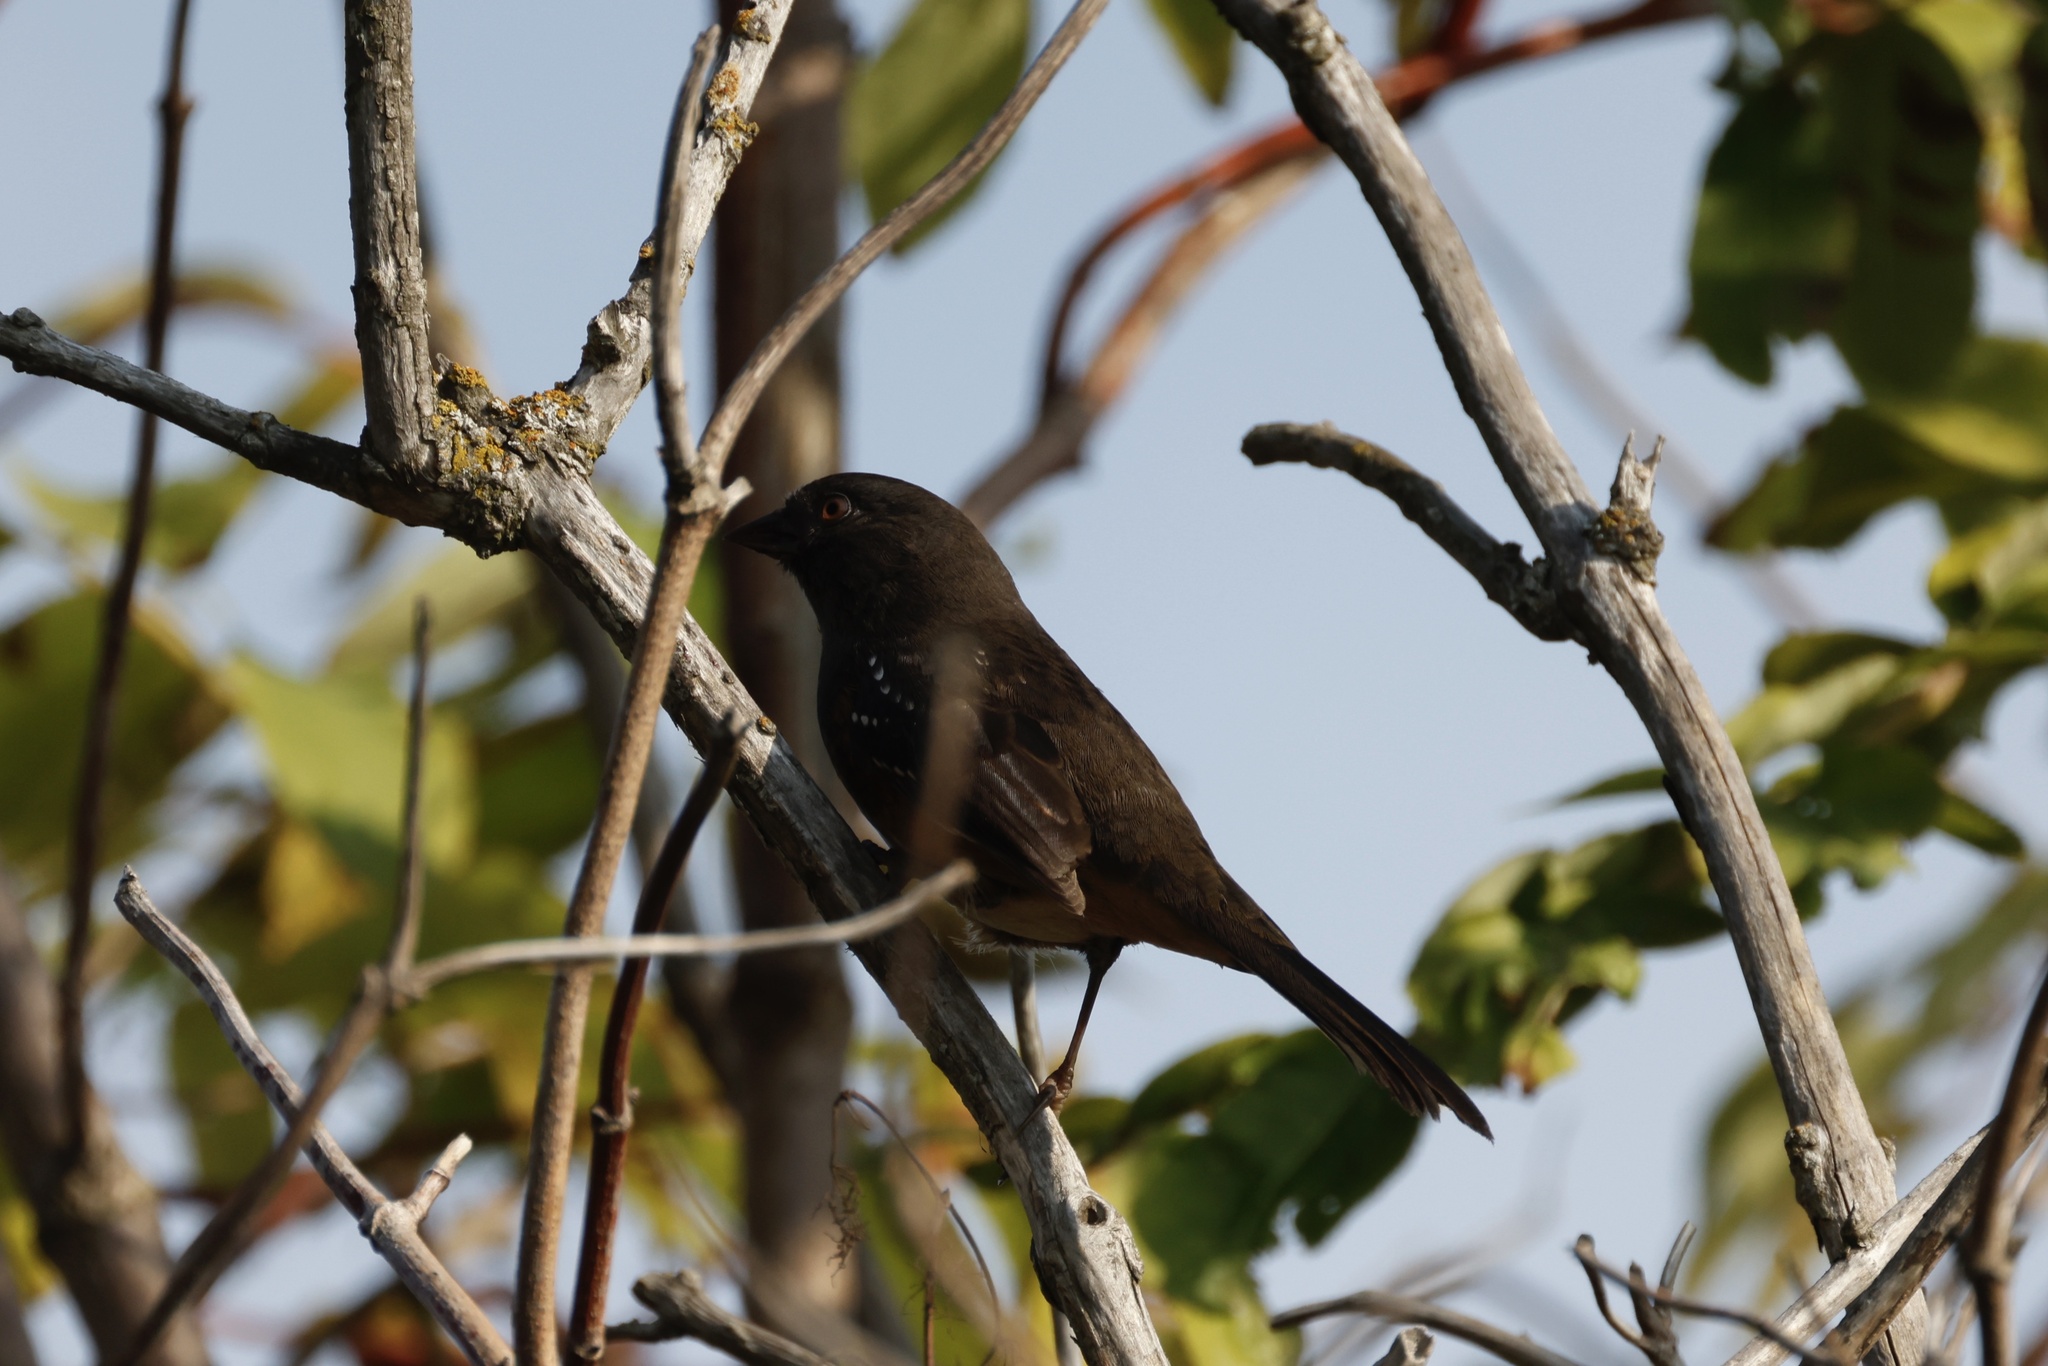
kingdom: Animalia
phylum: Chordata
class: Aves
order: Passeriformes
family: Passerellidae
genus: Pipilo
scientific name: Pipilo maculatus
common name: Spotted towhee
